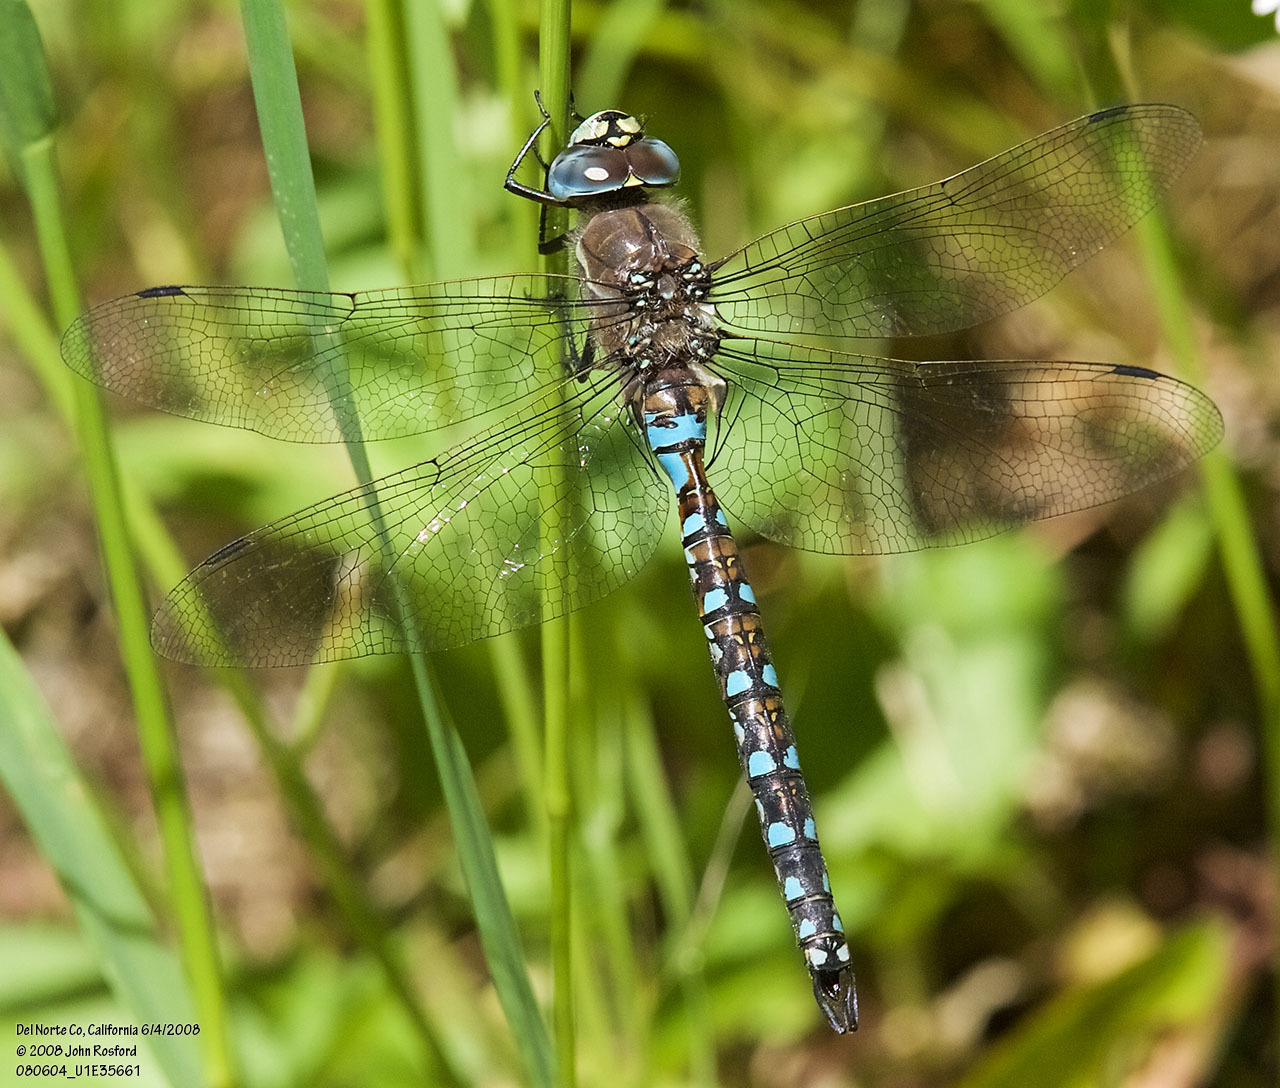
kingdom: Animalia
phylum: Arthropoda
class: Insecta
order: Odonata
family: Aeshnidae
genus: Rhionaeschna
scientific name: Rhionaeschna californica
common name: California darner
